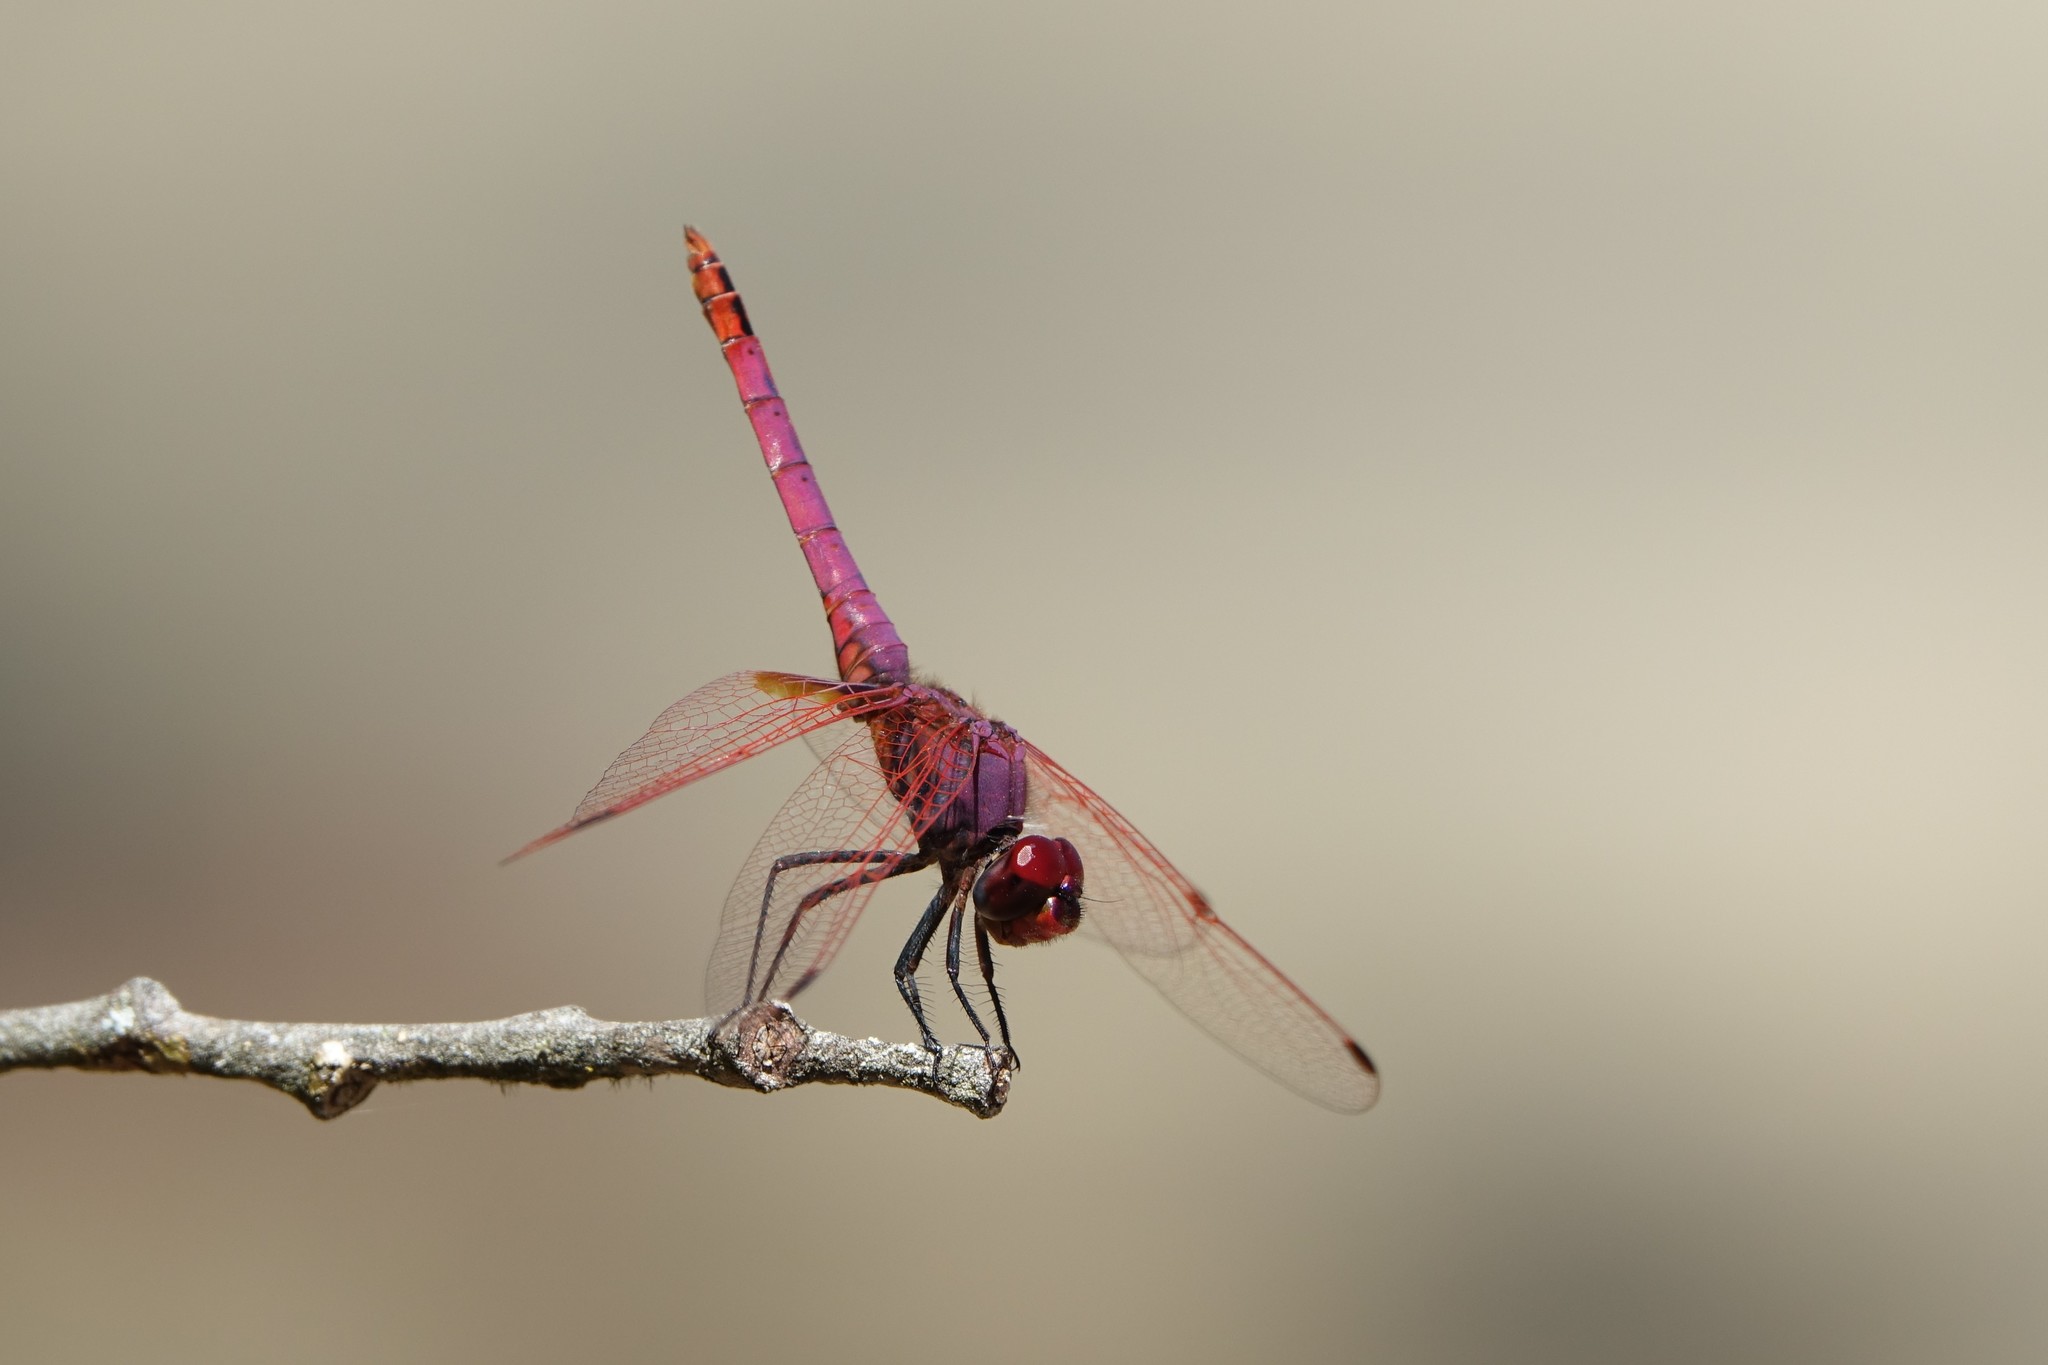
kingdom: Animalia
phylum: Arthropoda
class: Insecta
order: Odonata
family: Libellulidae
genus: Trithemis
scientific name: Trithemis annulata
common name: Violet dropwing
